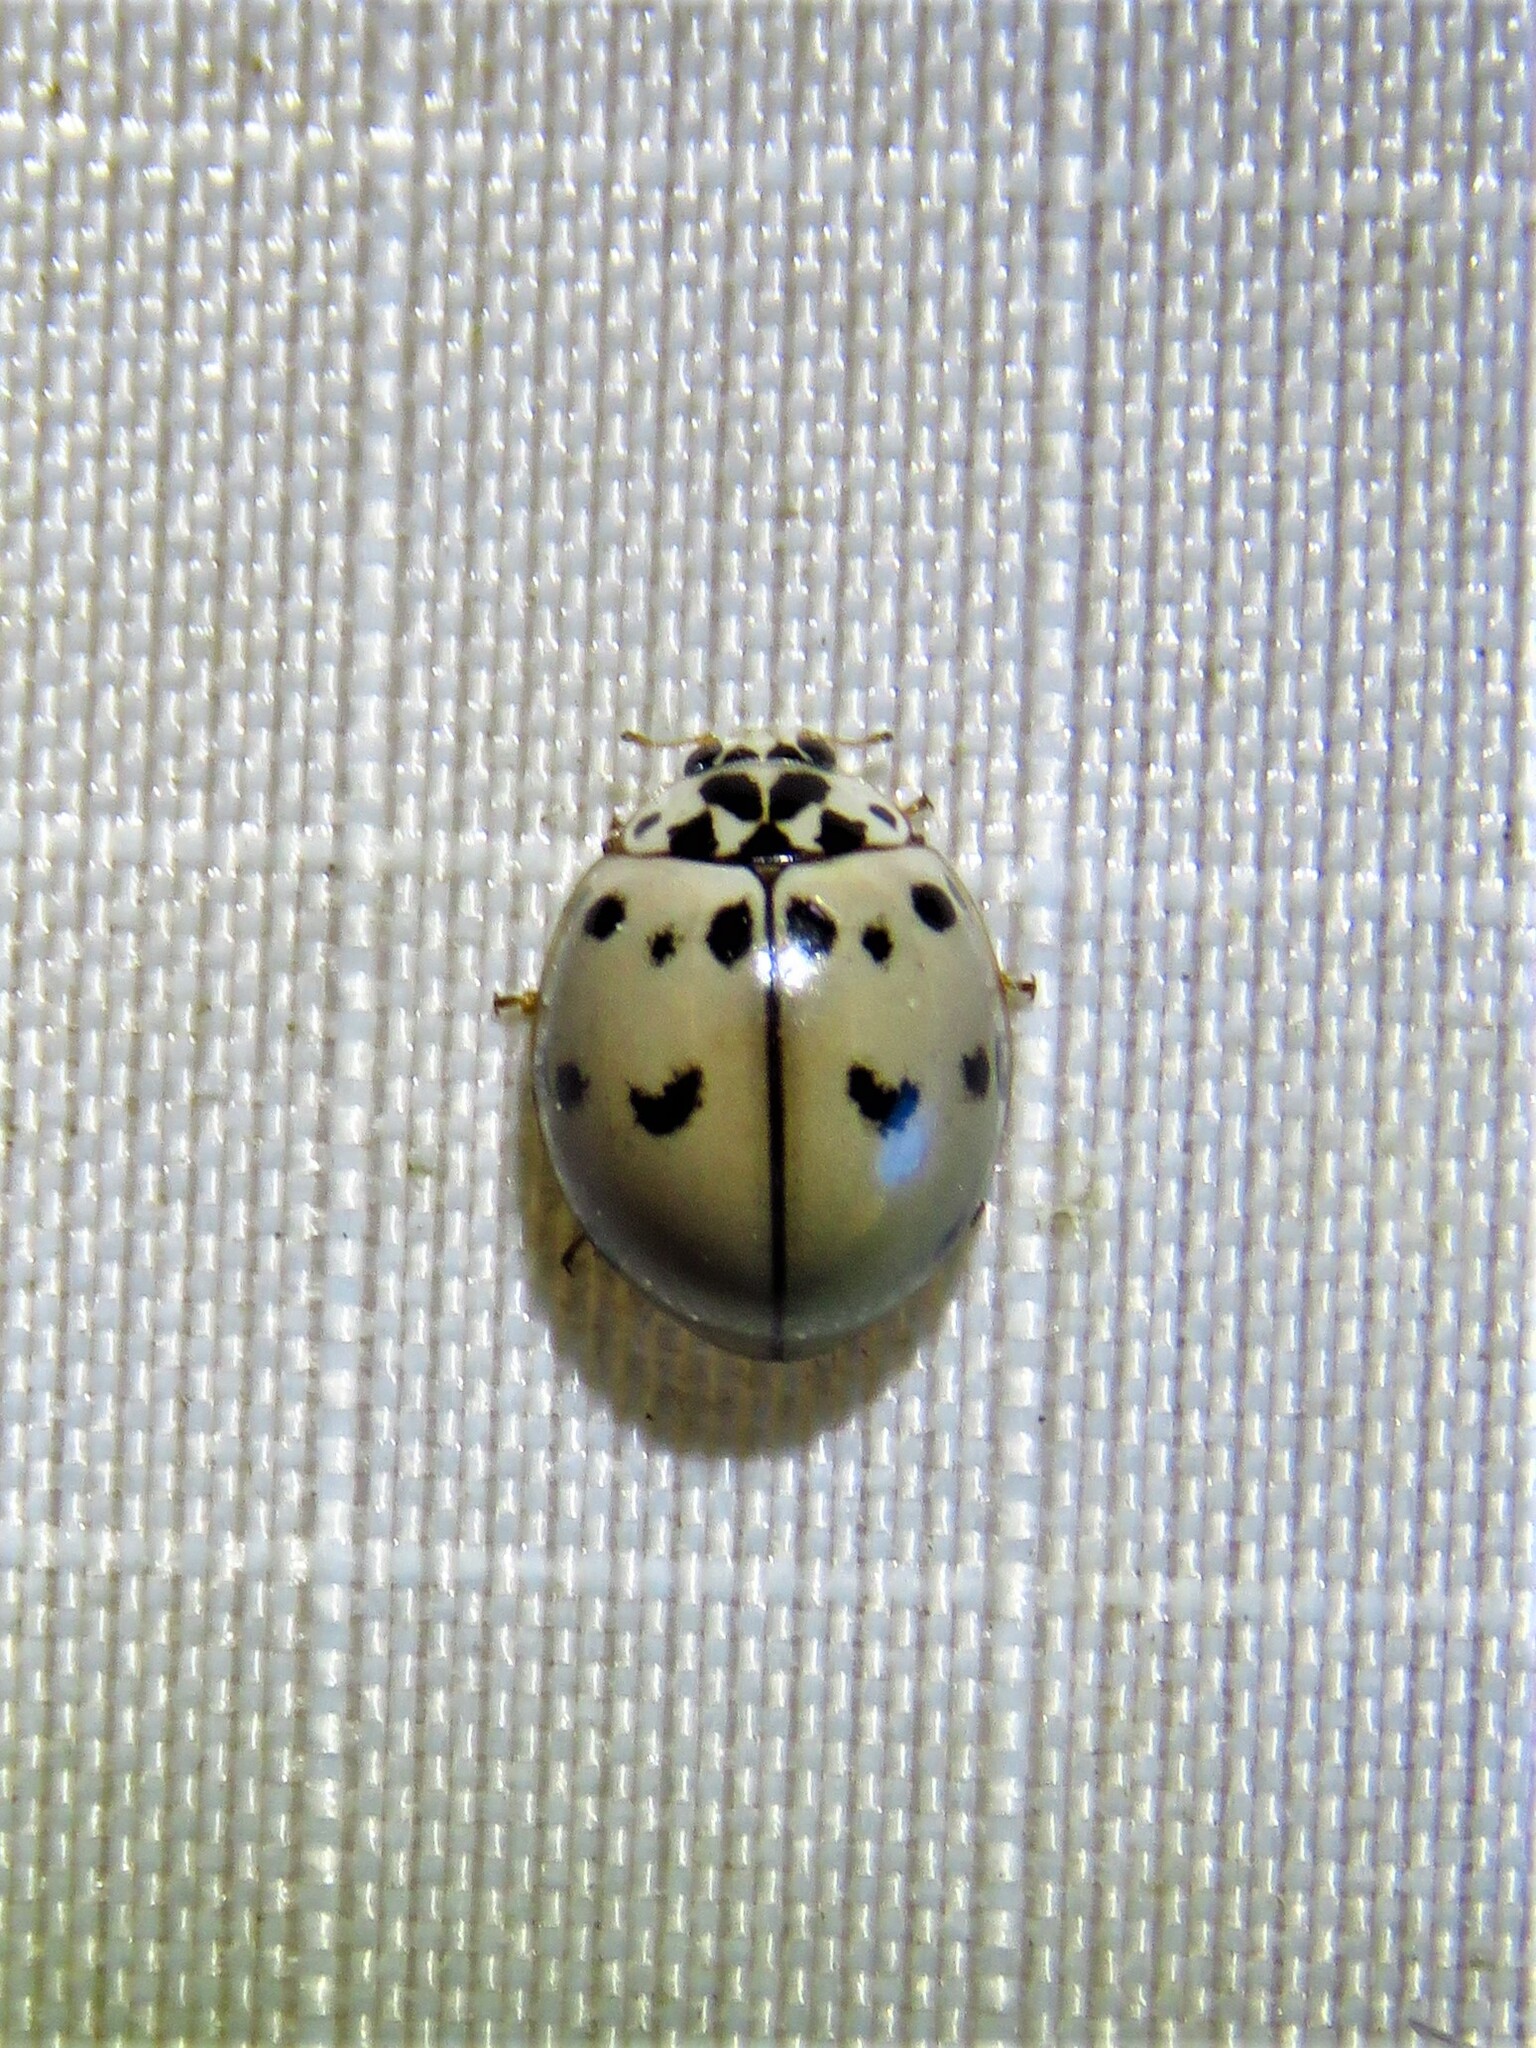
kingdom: Animalia
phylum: Arthropoda
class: Insecta
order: Coleoptera
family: Coccinellidae
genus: Olla
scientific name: Olla v-nigrum
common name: Ashy gray lady beetle
